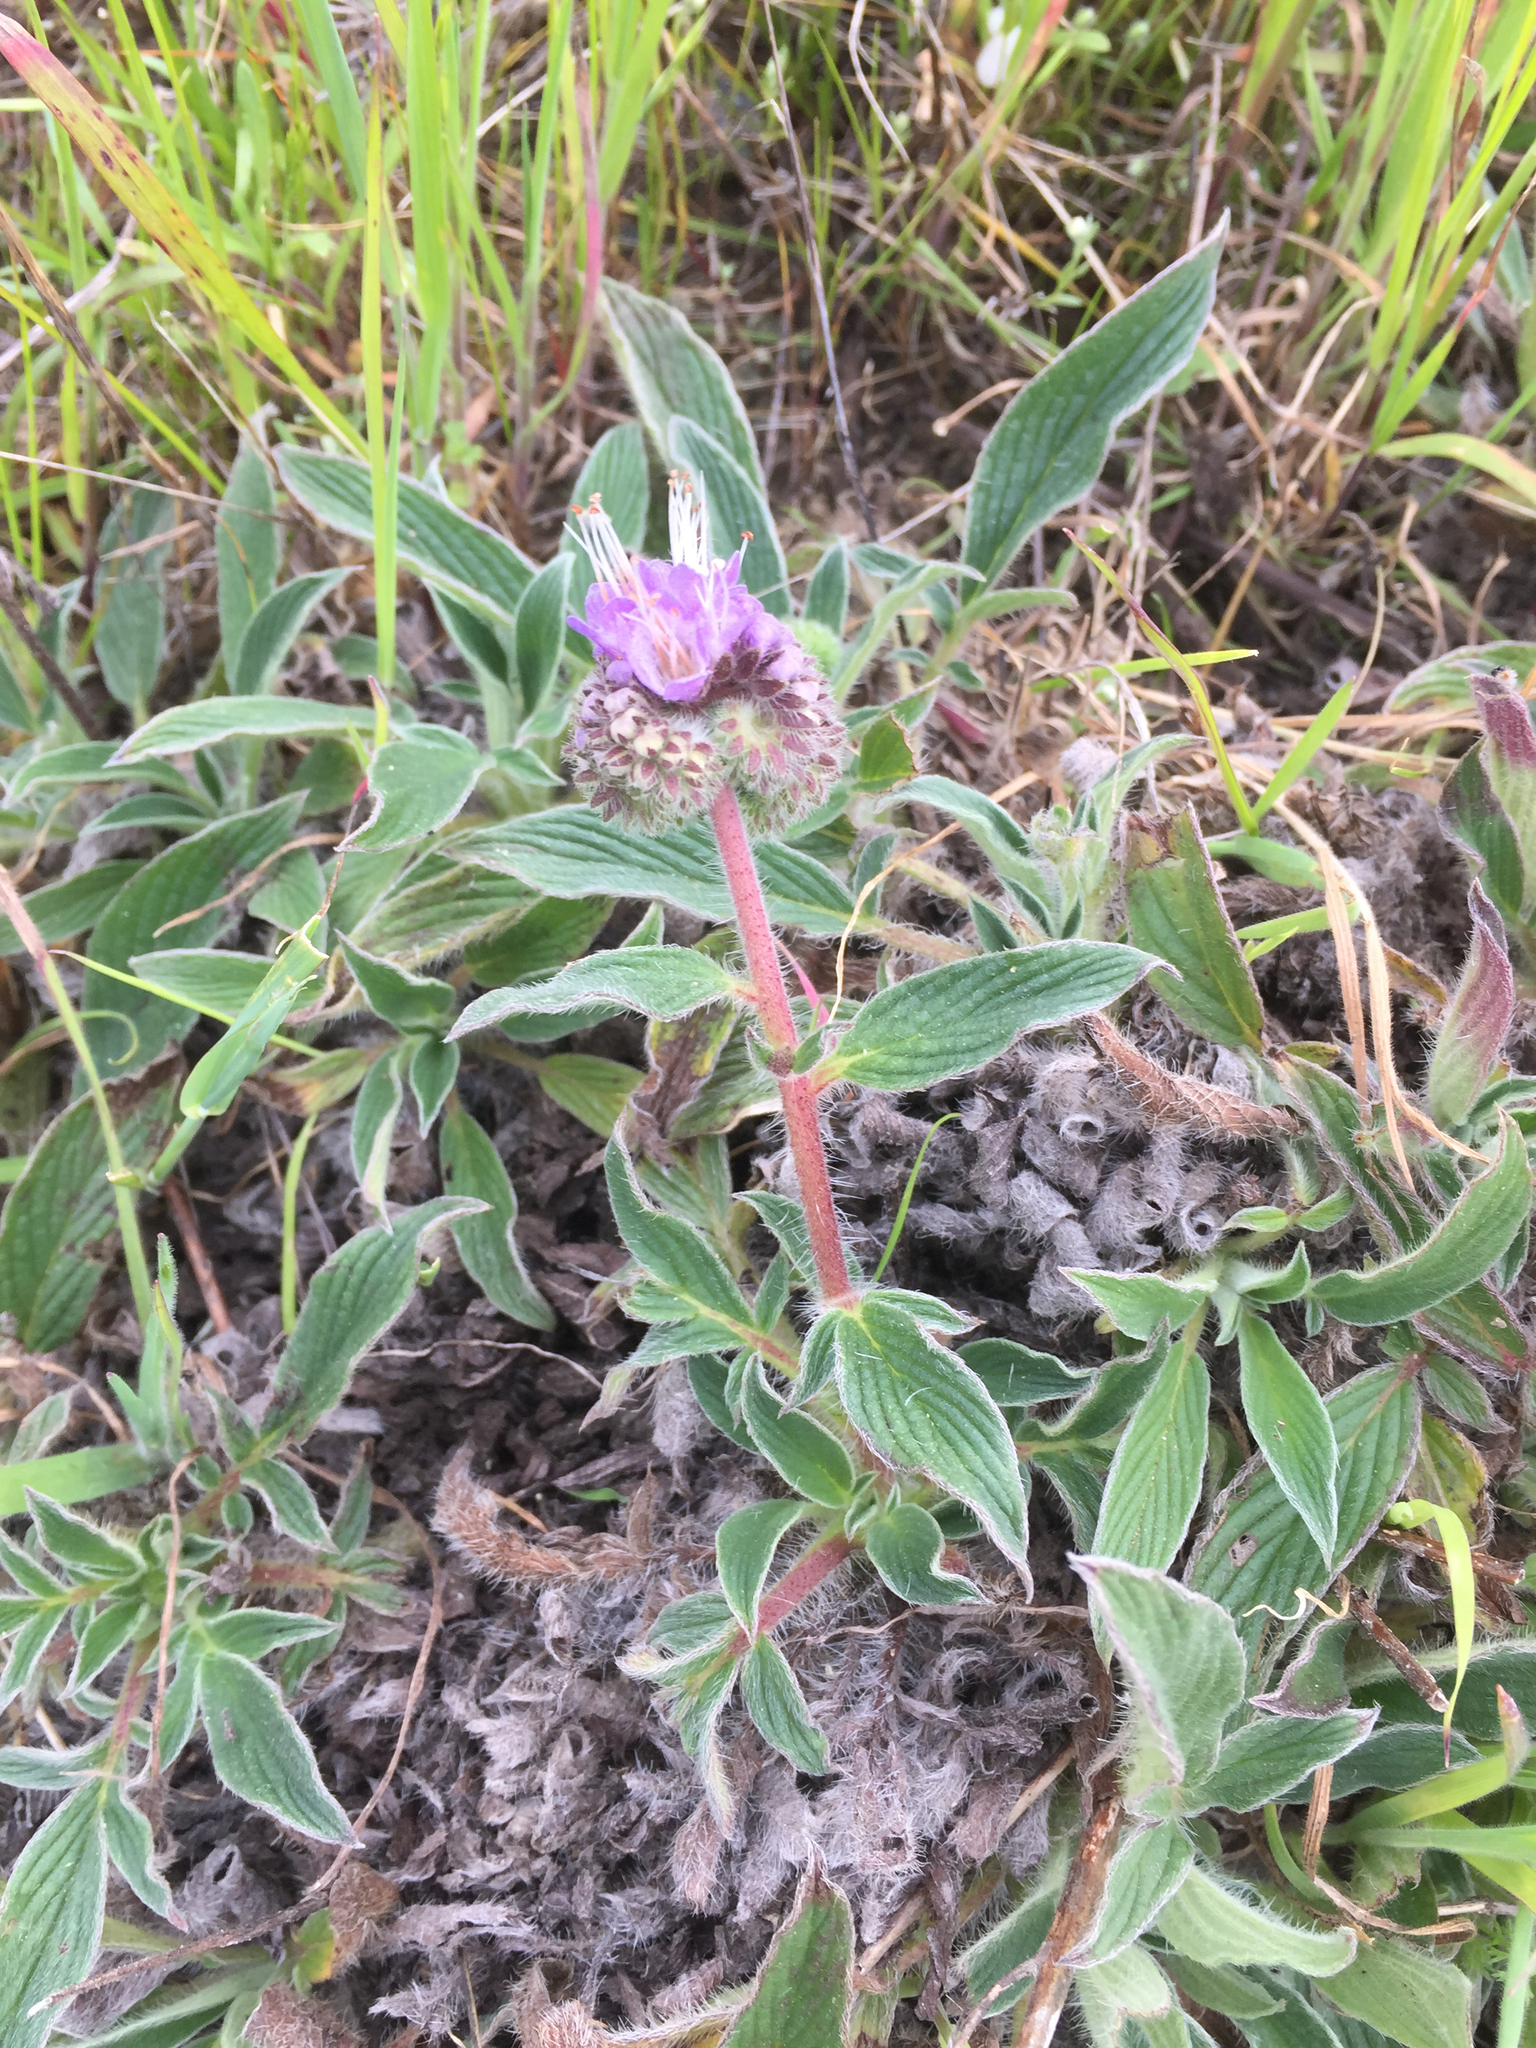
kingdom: Plantae
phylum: Tracheophyta
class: Magnoliopsida
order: Boraginales
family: Hydrophyllaceae
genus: Phacelia
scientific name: Phacelia californica
